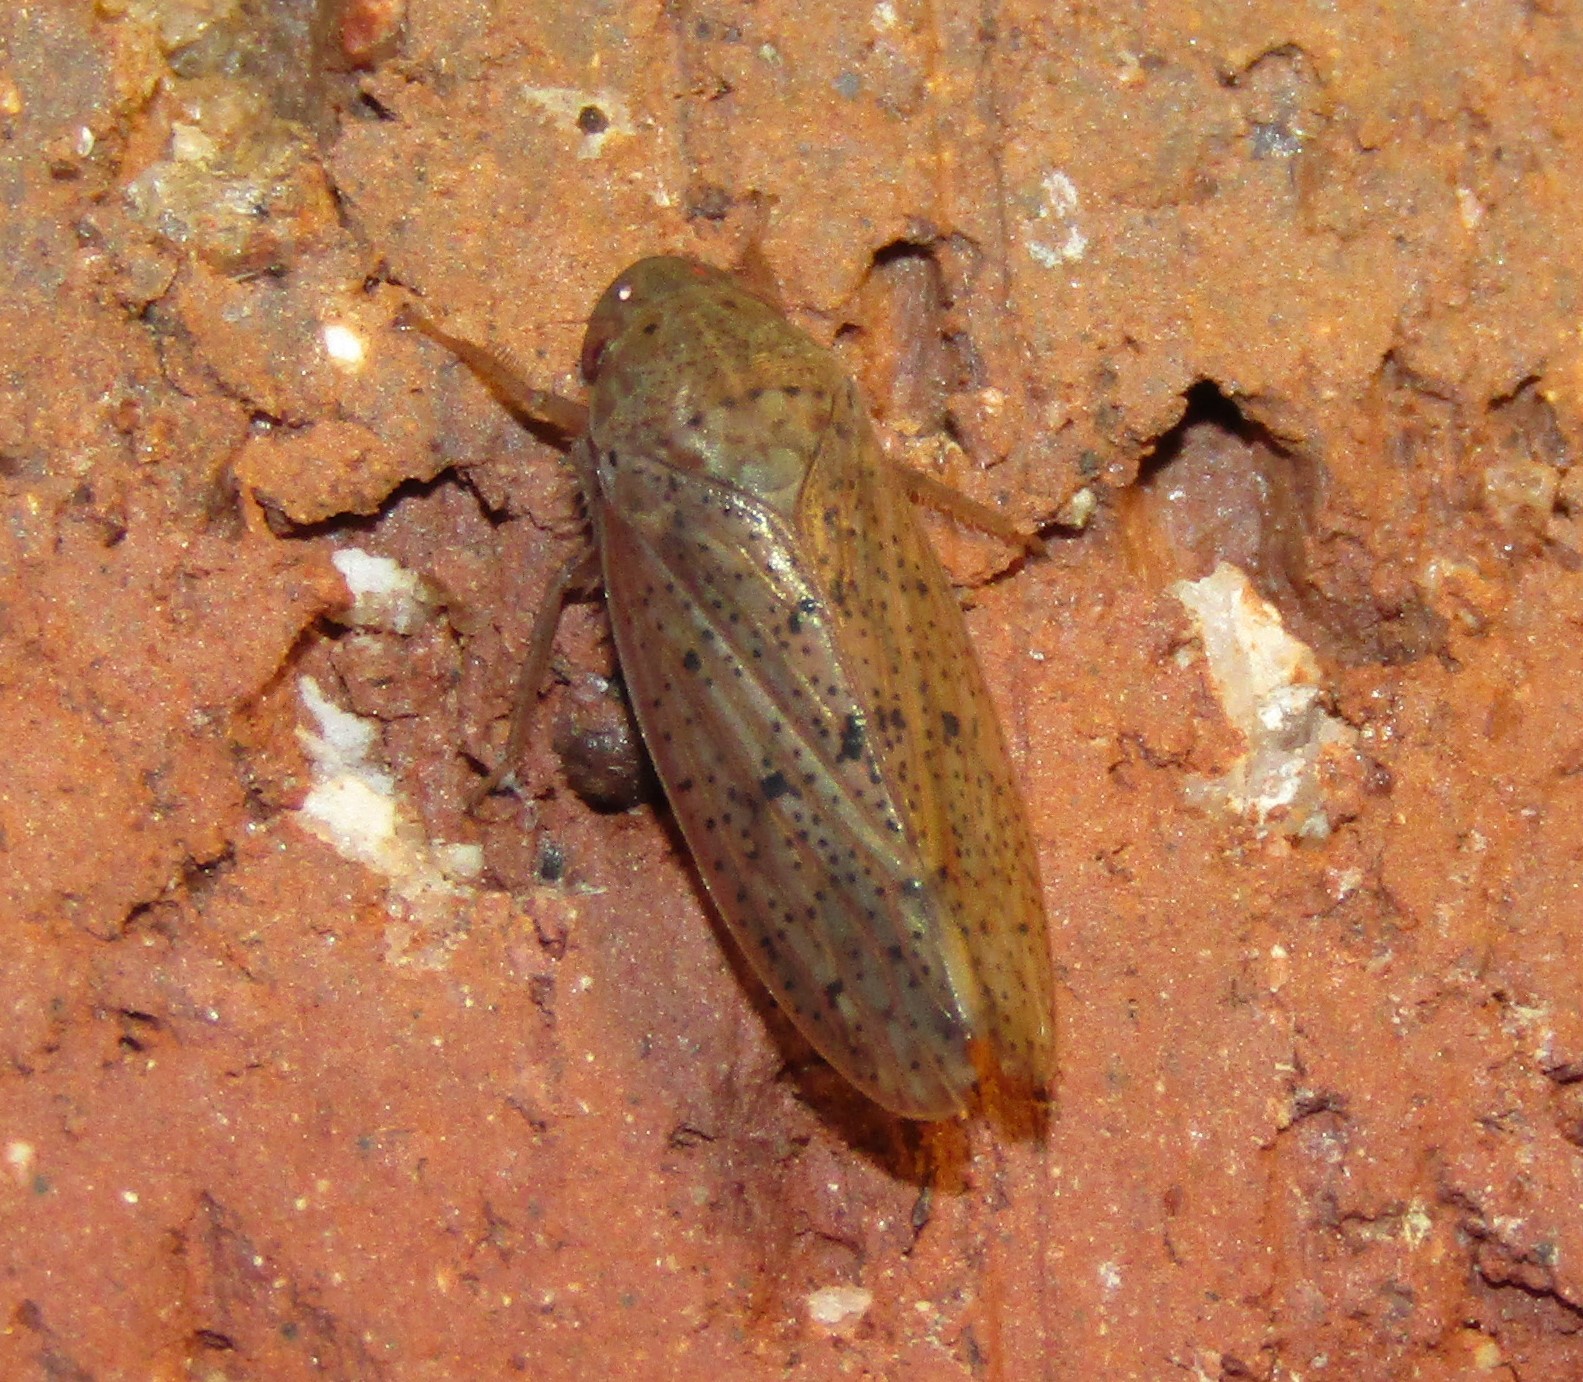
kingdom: Animalia
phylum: Arthropoda
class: Insecta
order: Hemiptera
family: Cicadellidae
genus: Ponana
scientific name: Ponana puncticollis
